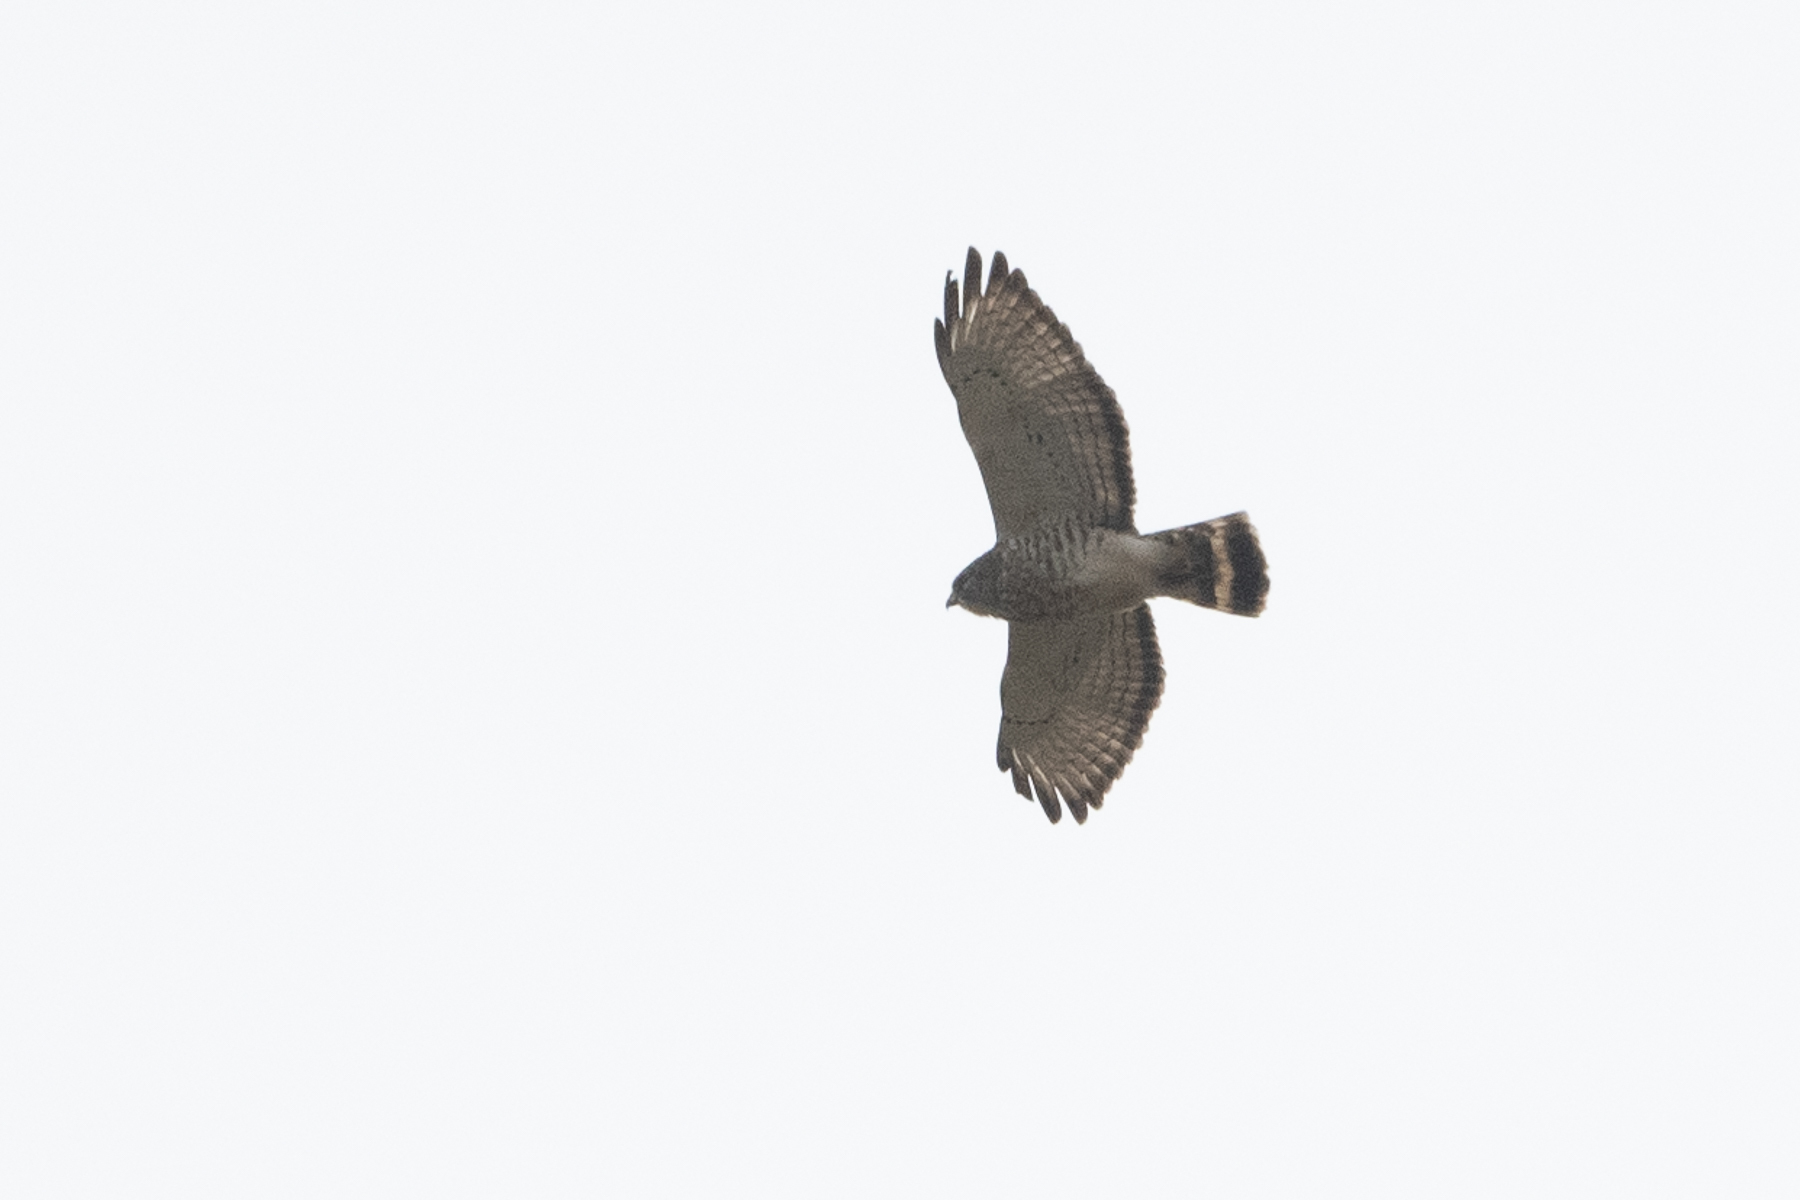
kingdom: Animalia
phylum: Chordata
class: Aves
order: Accipitriformes
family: Accipitridae
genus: Buteo
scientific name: Buteo platypterus
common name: Broad-winged hawk
